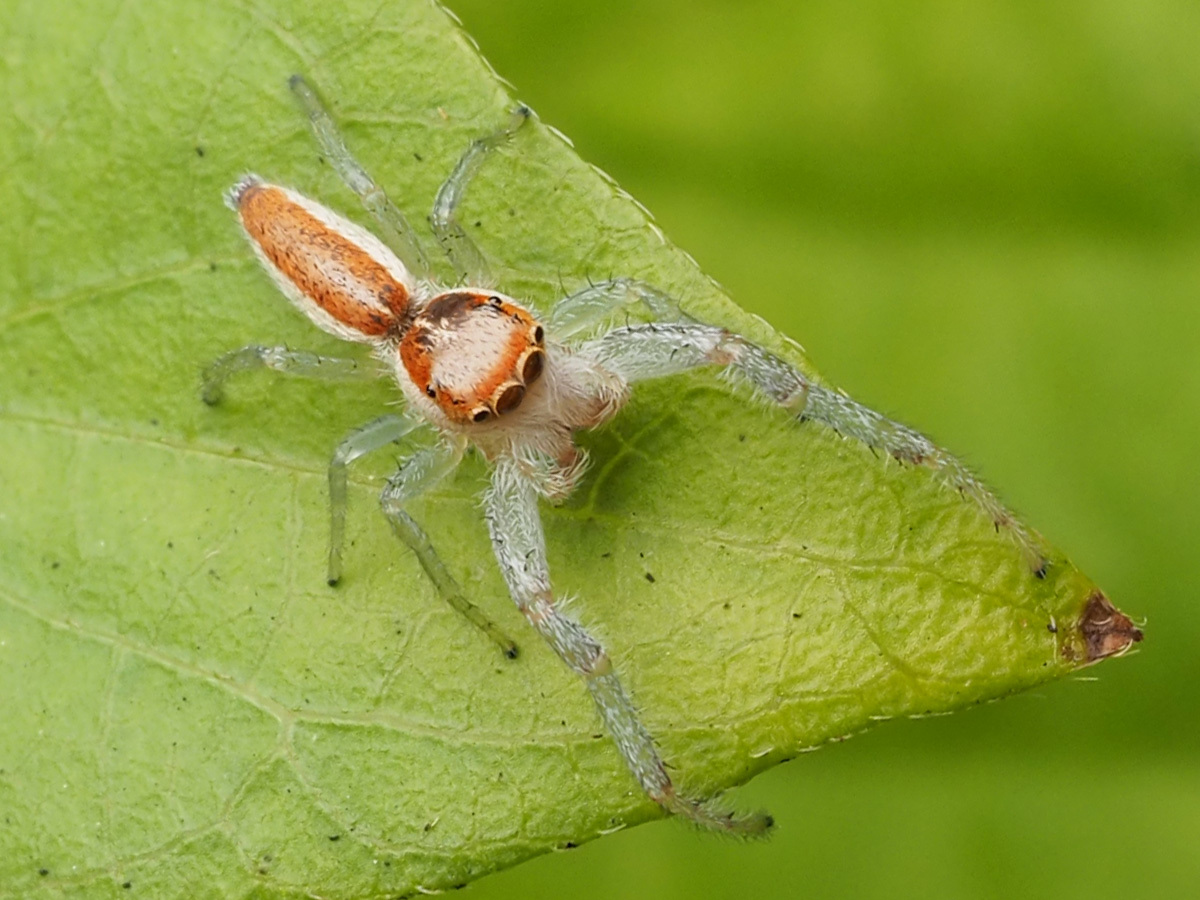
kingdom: Animalia
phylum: Arthropoda
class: Arachnida
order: Araneae
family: Salticidae
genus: Hentzia
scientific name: Hentzia mitrata
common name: White-jawed jumping spider
